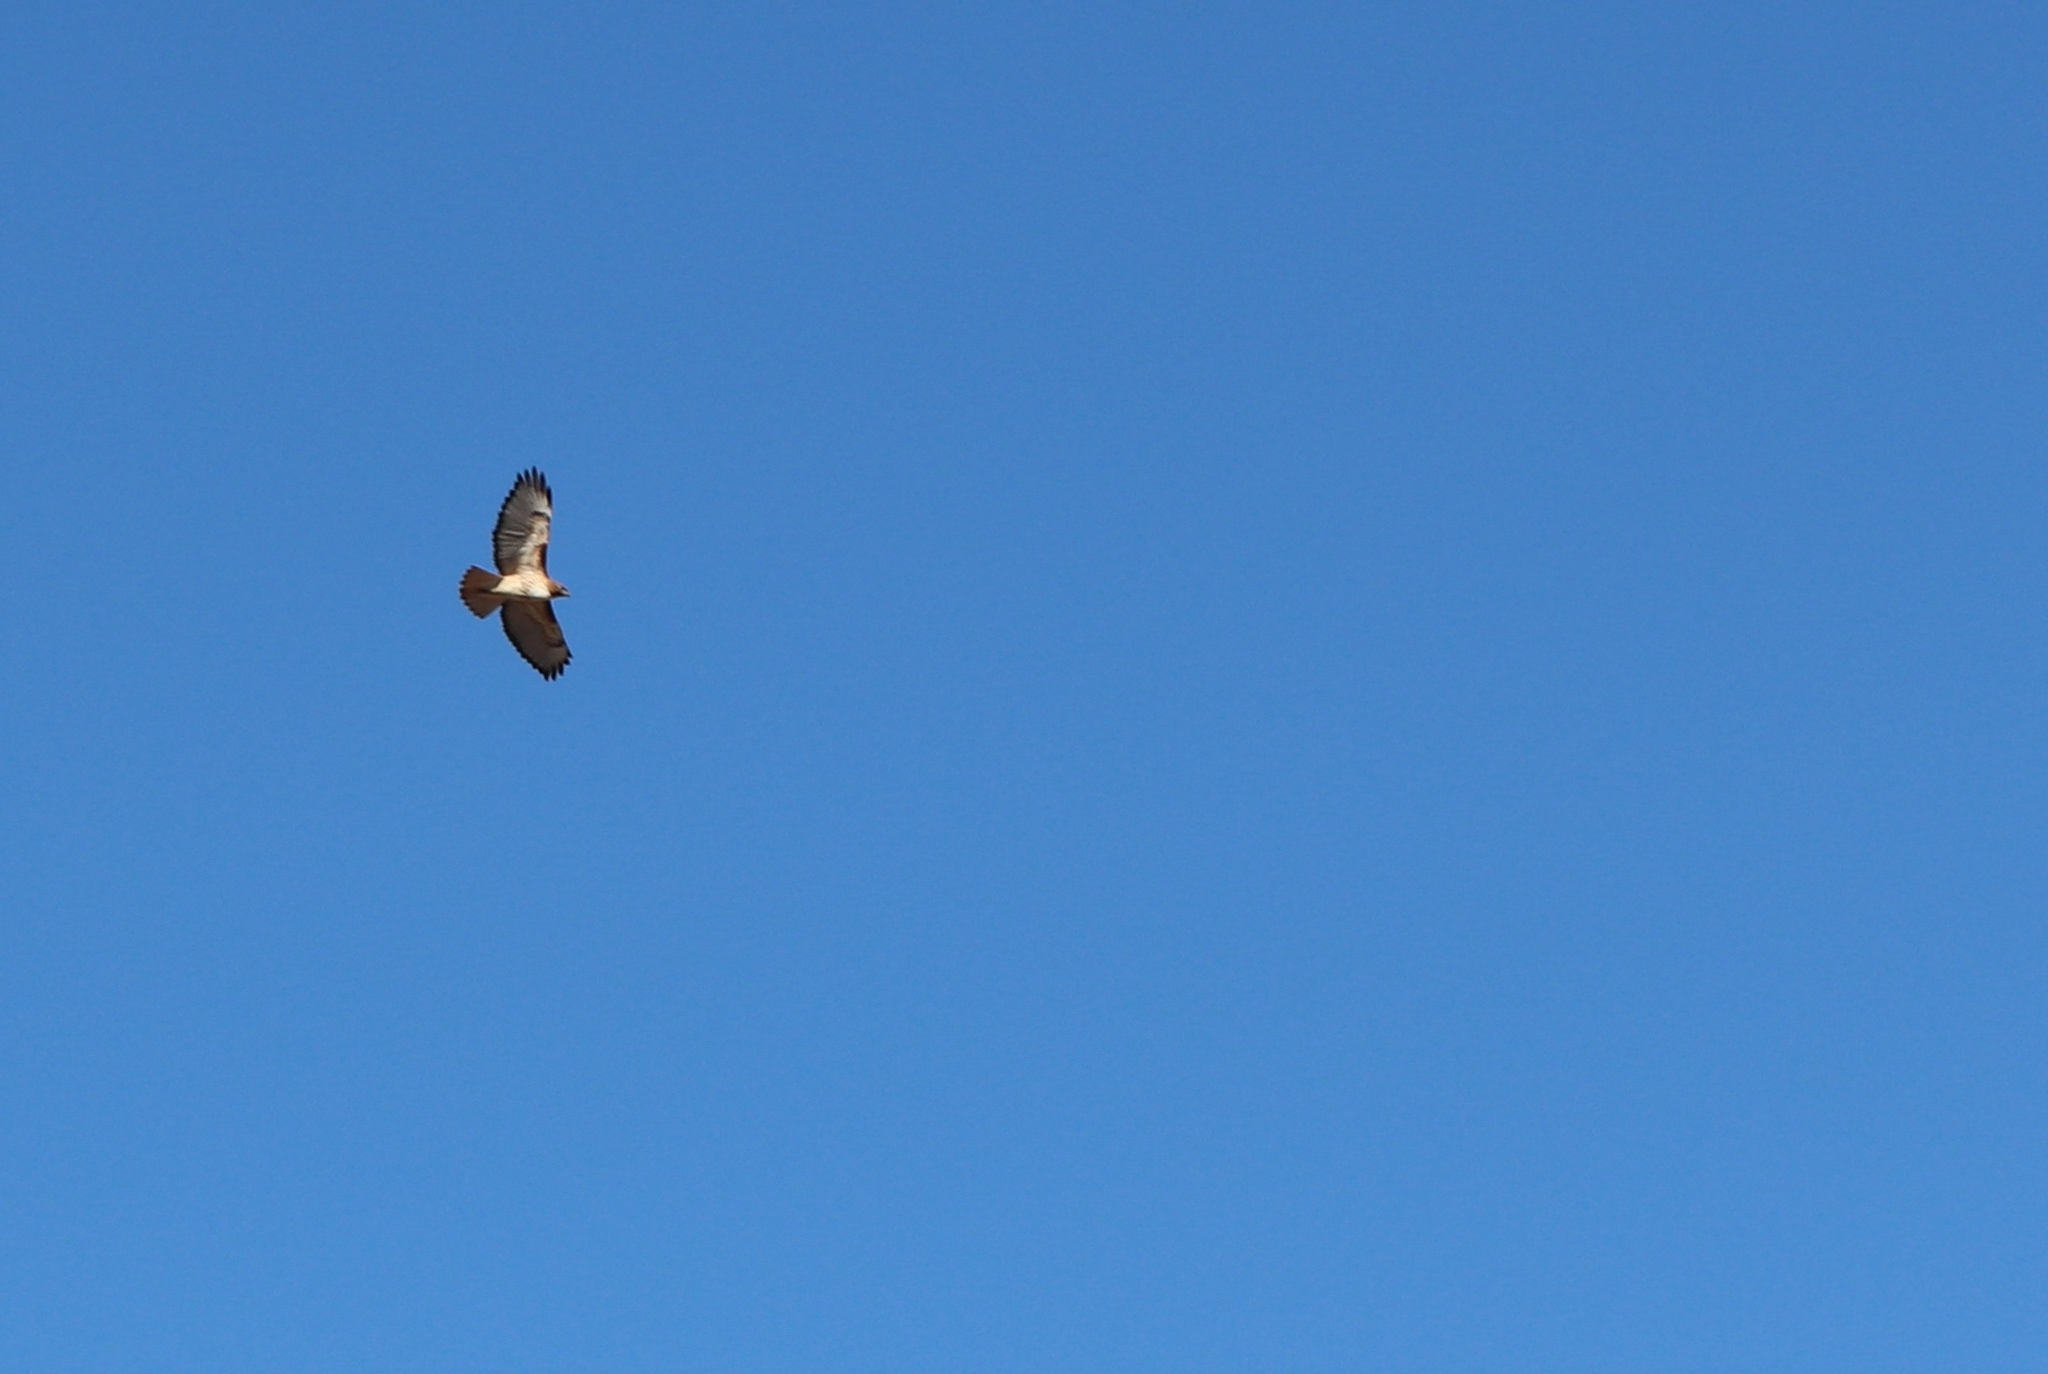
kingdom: Animalia
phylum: Chordata
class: Aves
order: Accipitriformes
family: Accipitridae
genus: Buteo
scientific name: Buteo jamaicensis
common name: Red-tailed hawk
